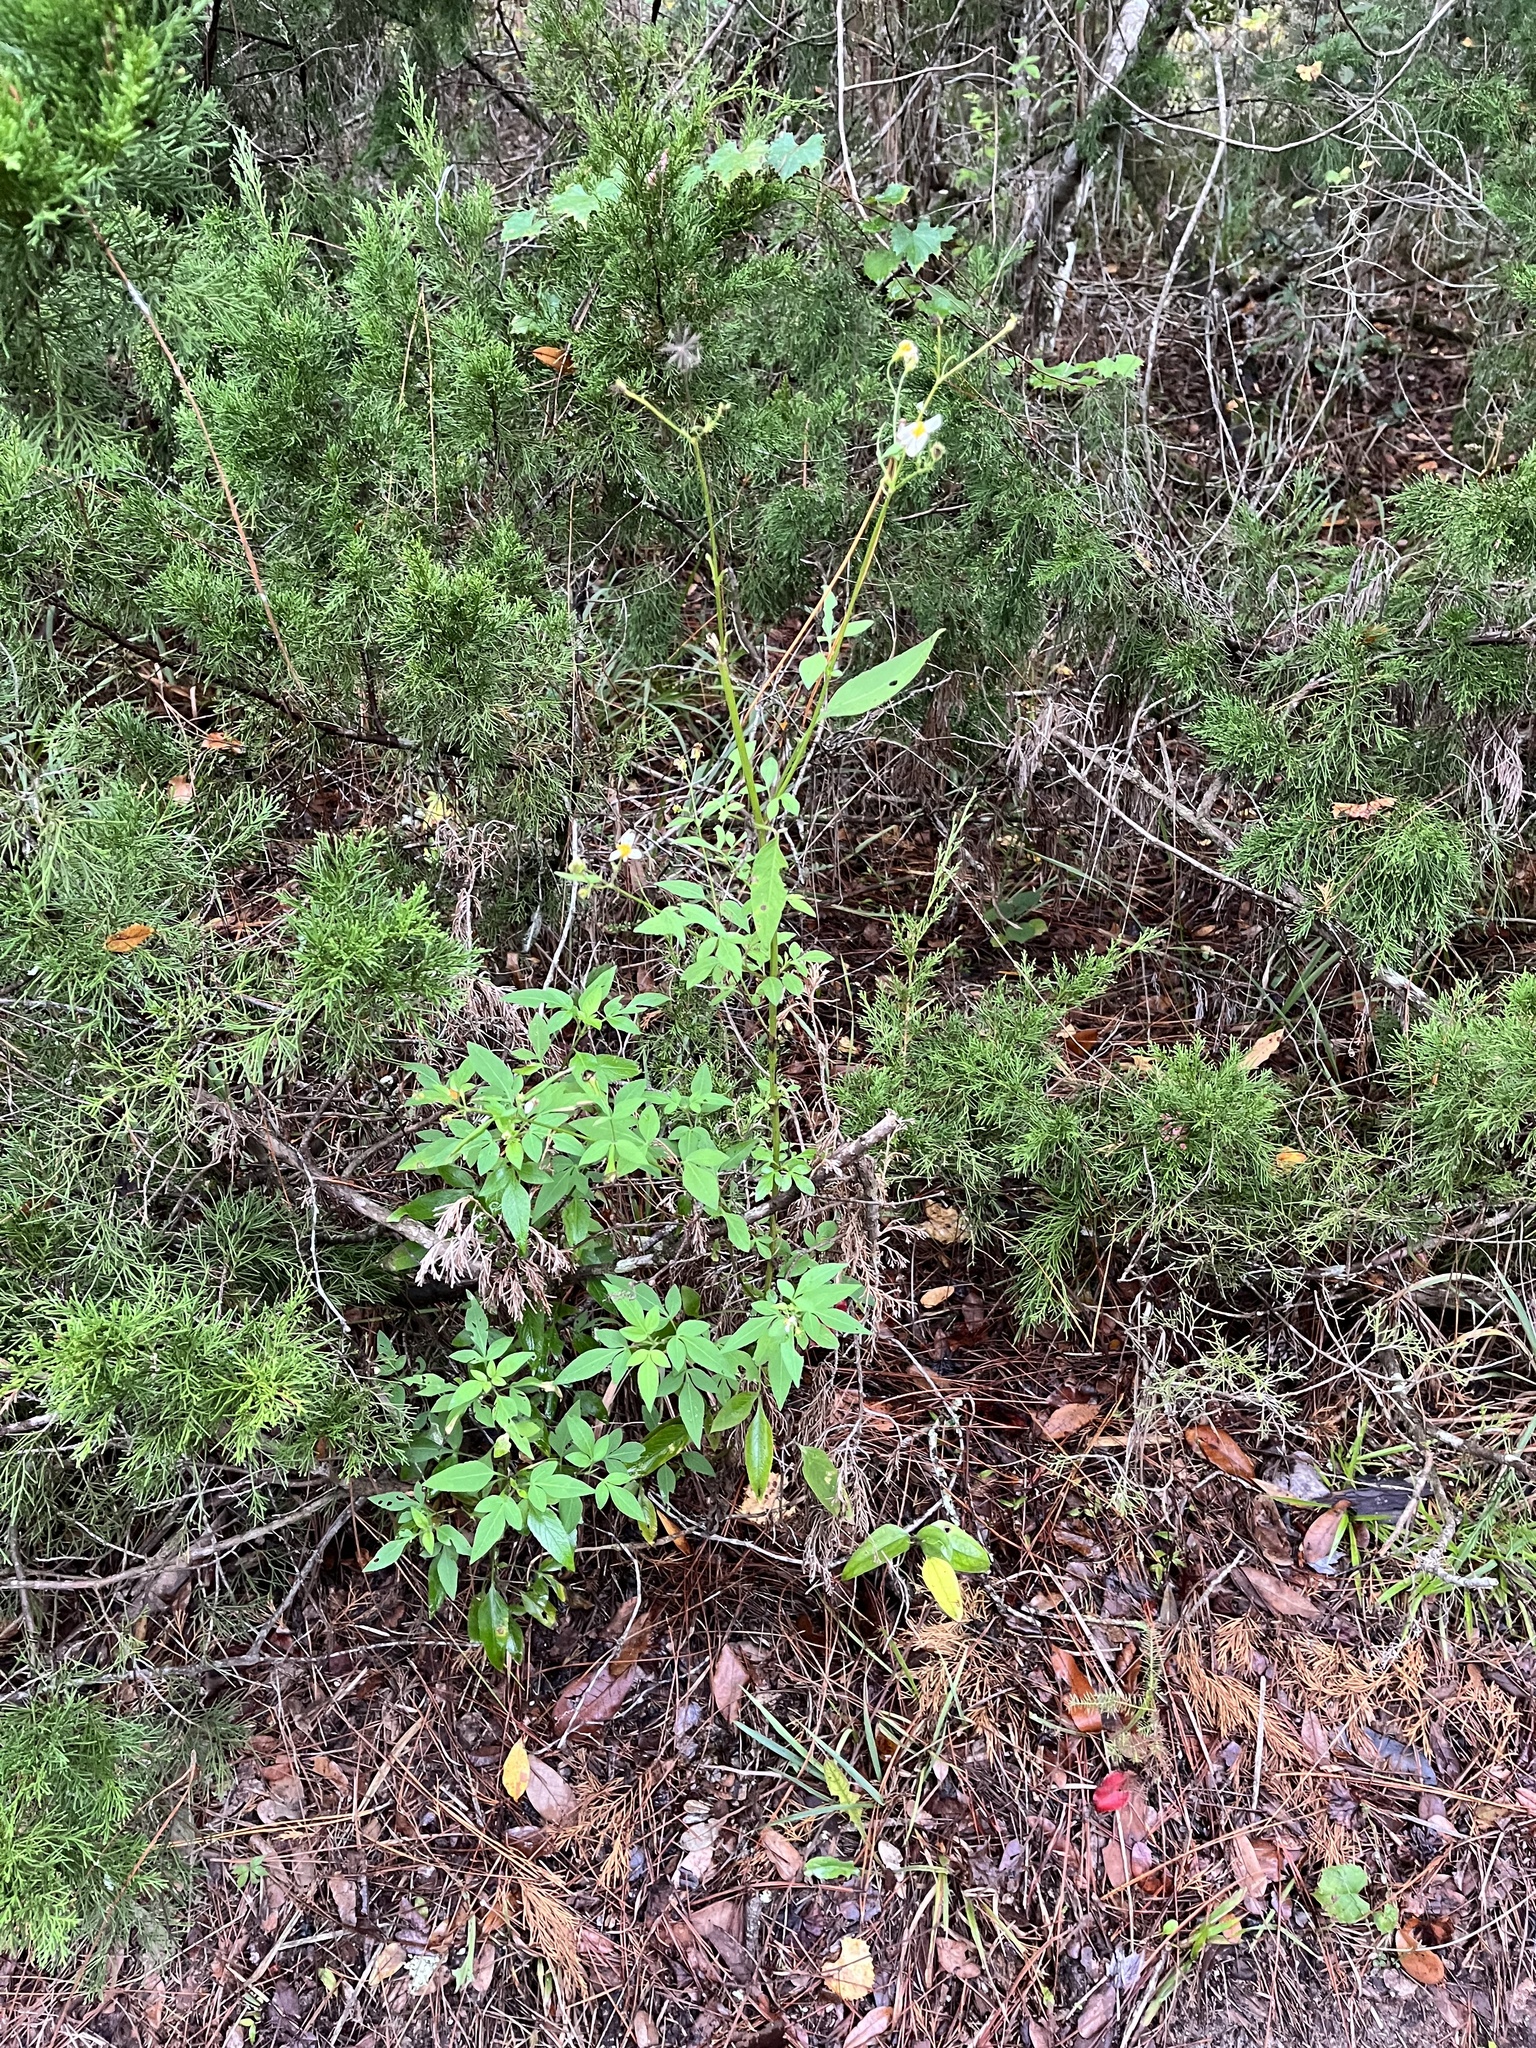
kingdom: Plantae
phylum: Tracheophyta
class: Magnoliopsida
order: Asterales
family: Asteraceae
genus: Bidens
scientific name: Bidens alba
